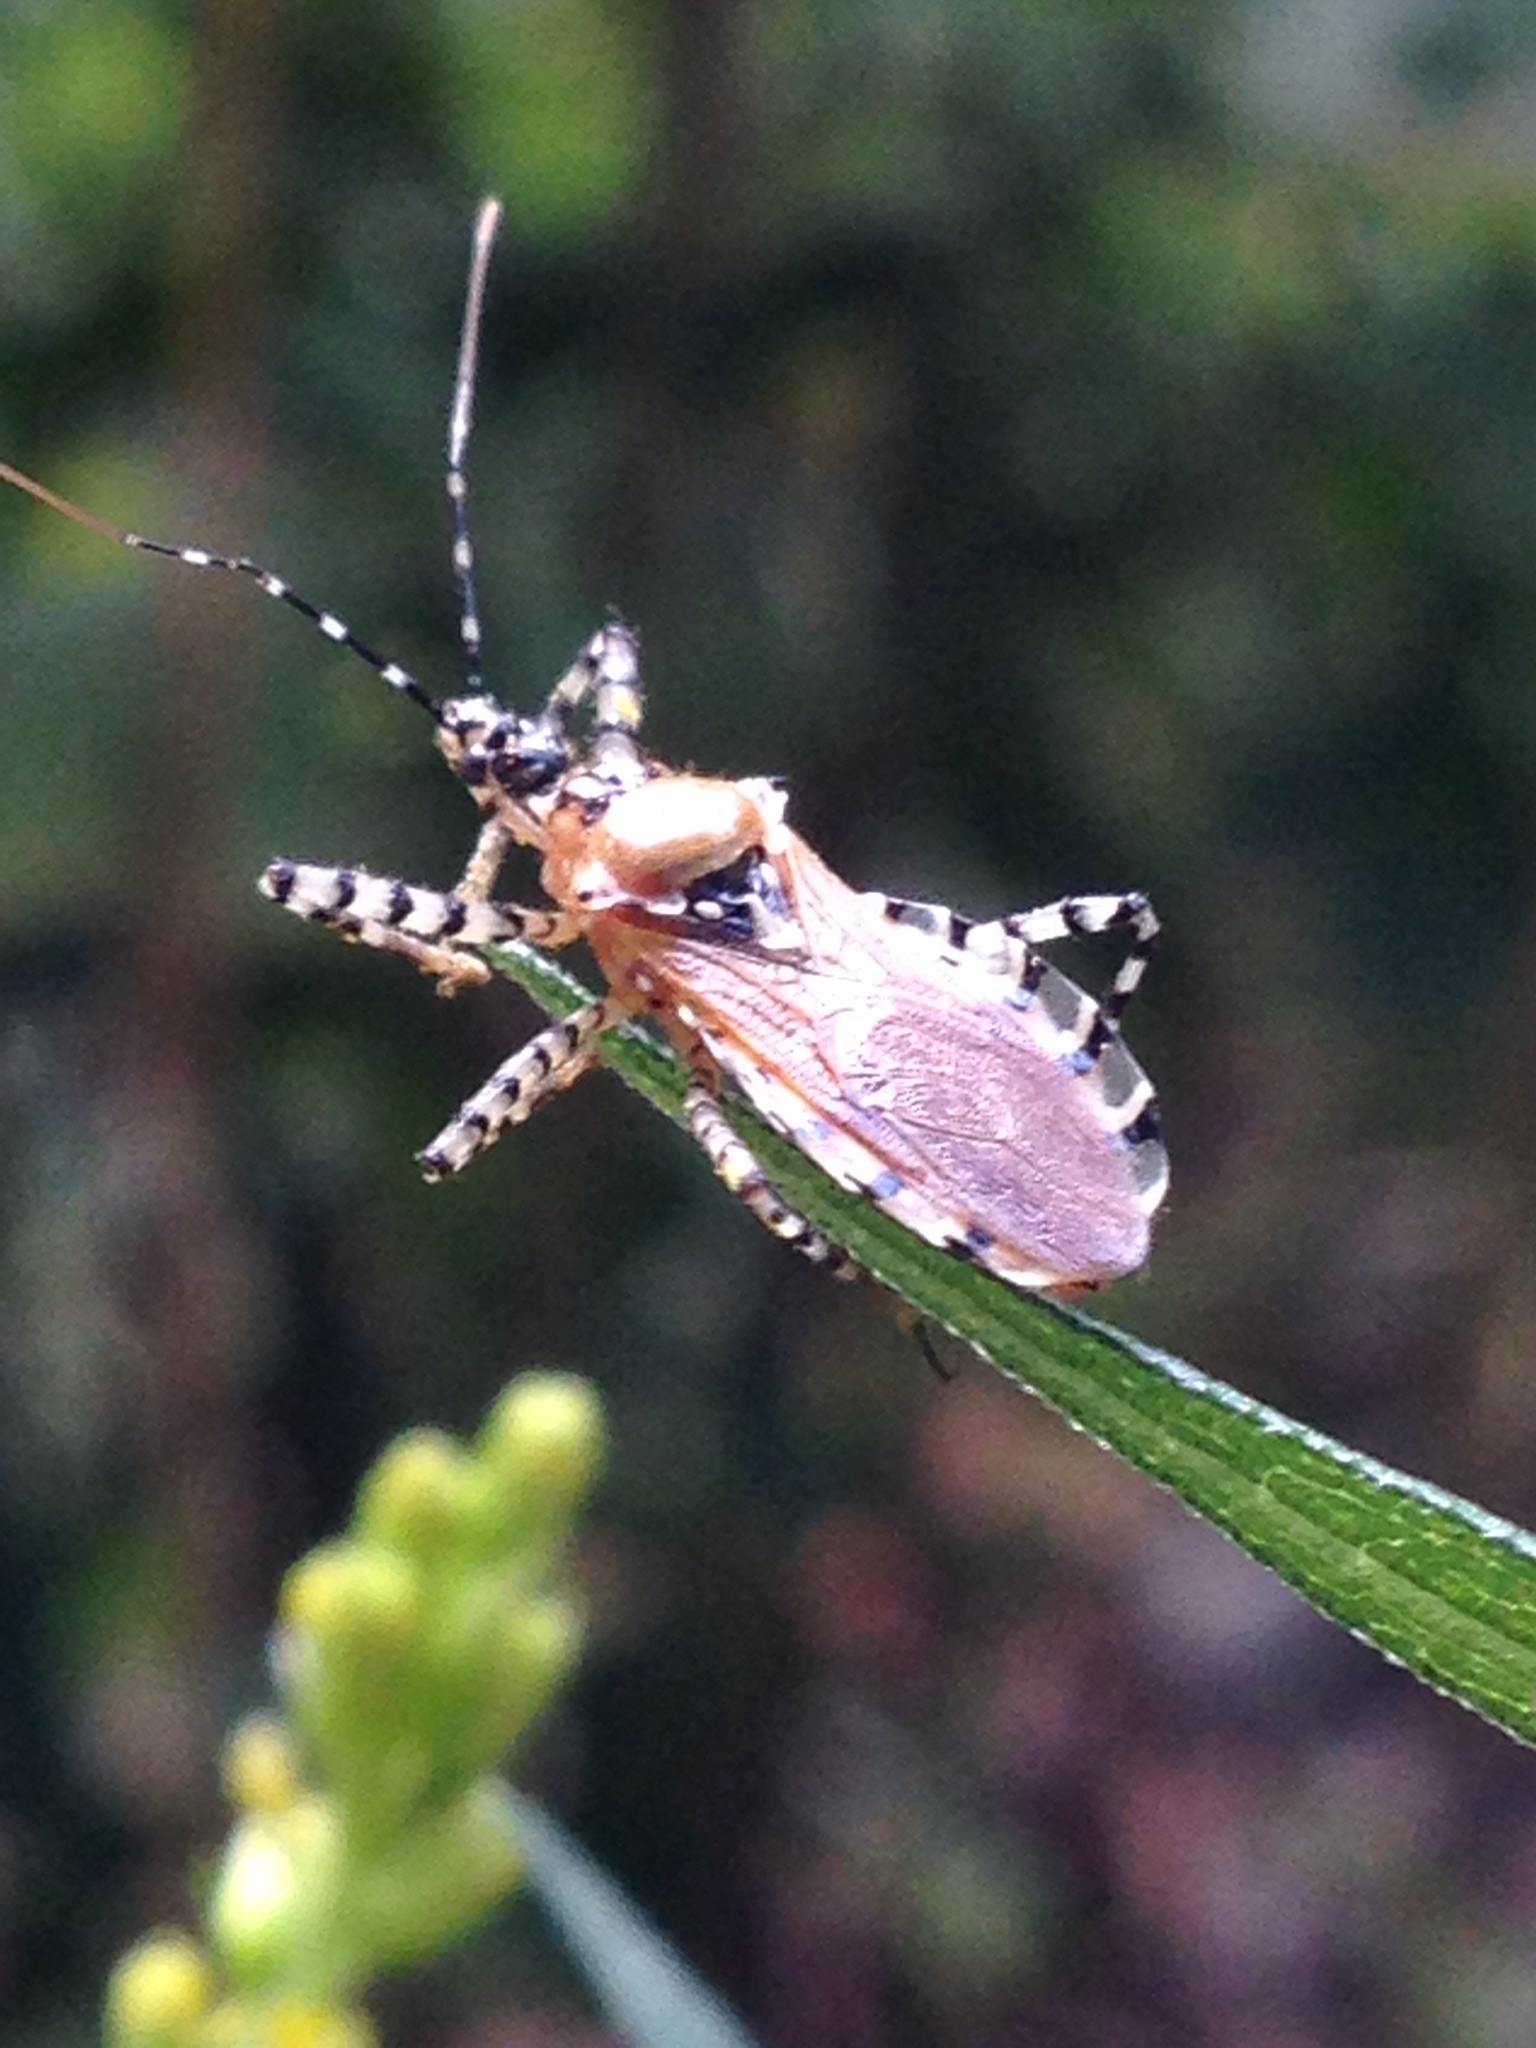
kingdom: Animalia
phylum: Arthropoda
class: Insecta
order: Hemiptera
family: Reduviidae
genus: Pselliopus
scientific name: Pselliopus cinctus
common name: Ringed assassin bug
